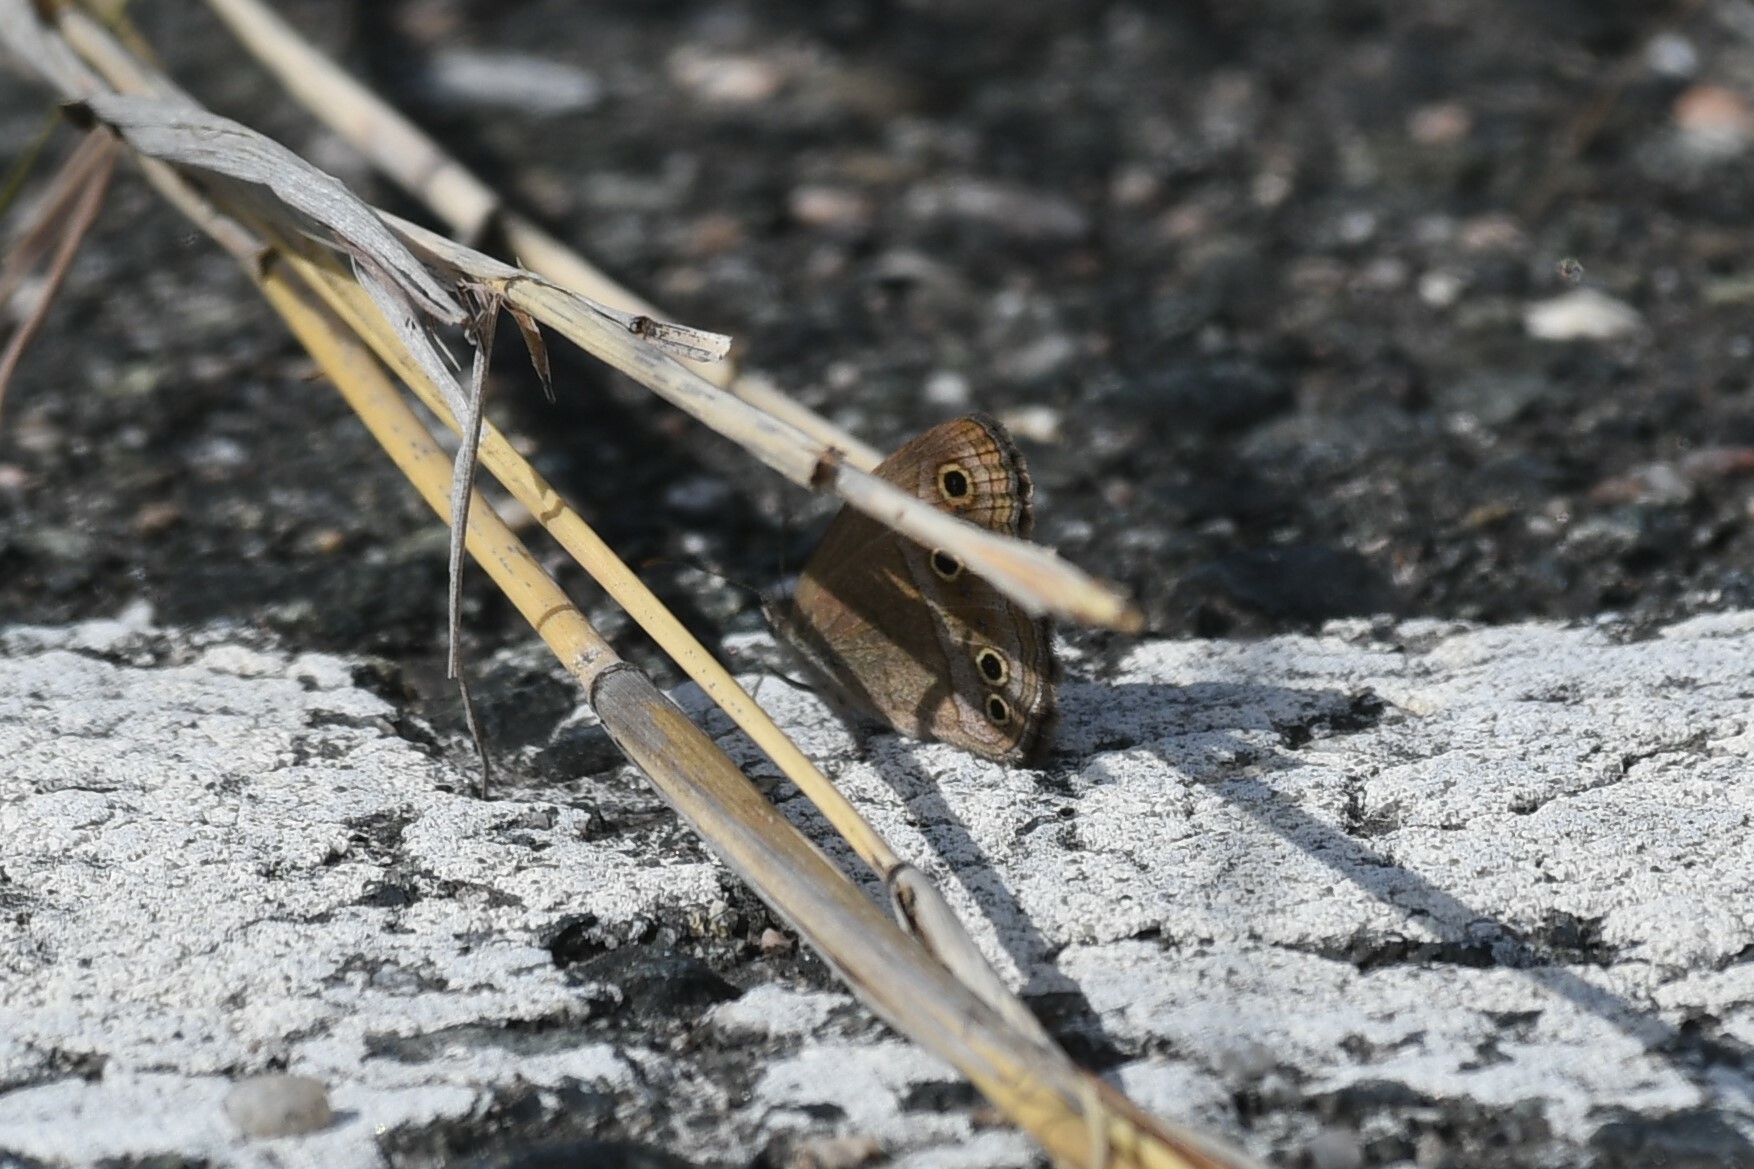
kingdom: Animalia
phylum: Arthropoda
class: Insecta
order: Lepidoptera
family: Nymphalidae
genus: Stegosatyrus
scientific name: Stegosatyrus periphas
